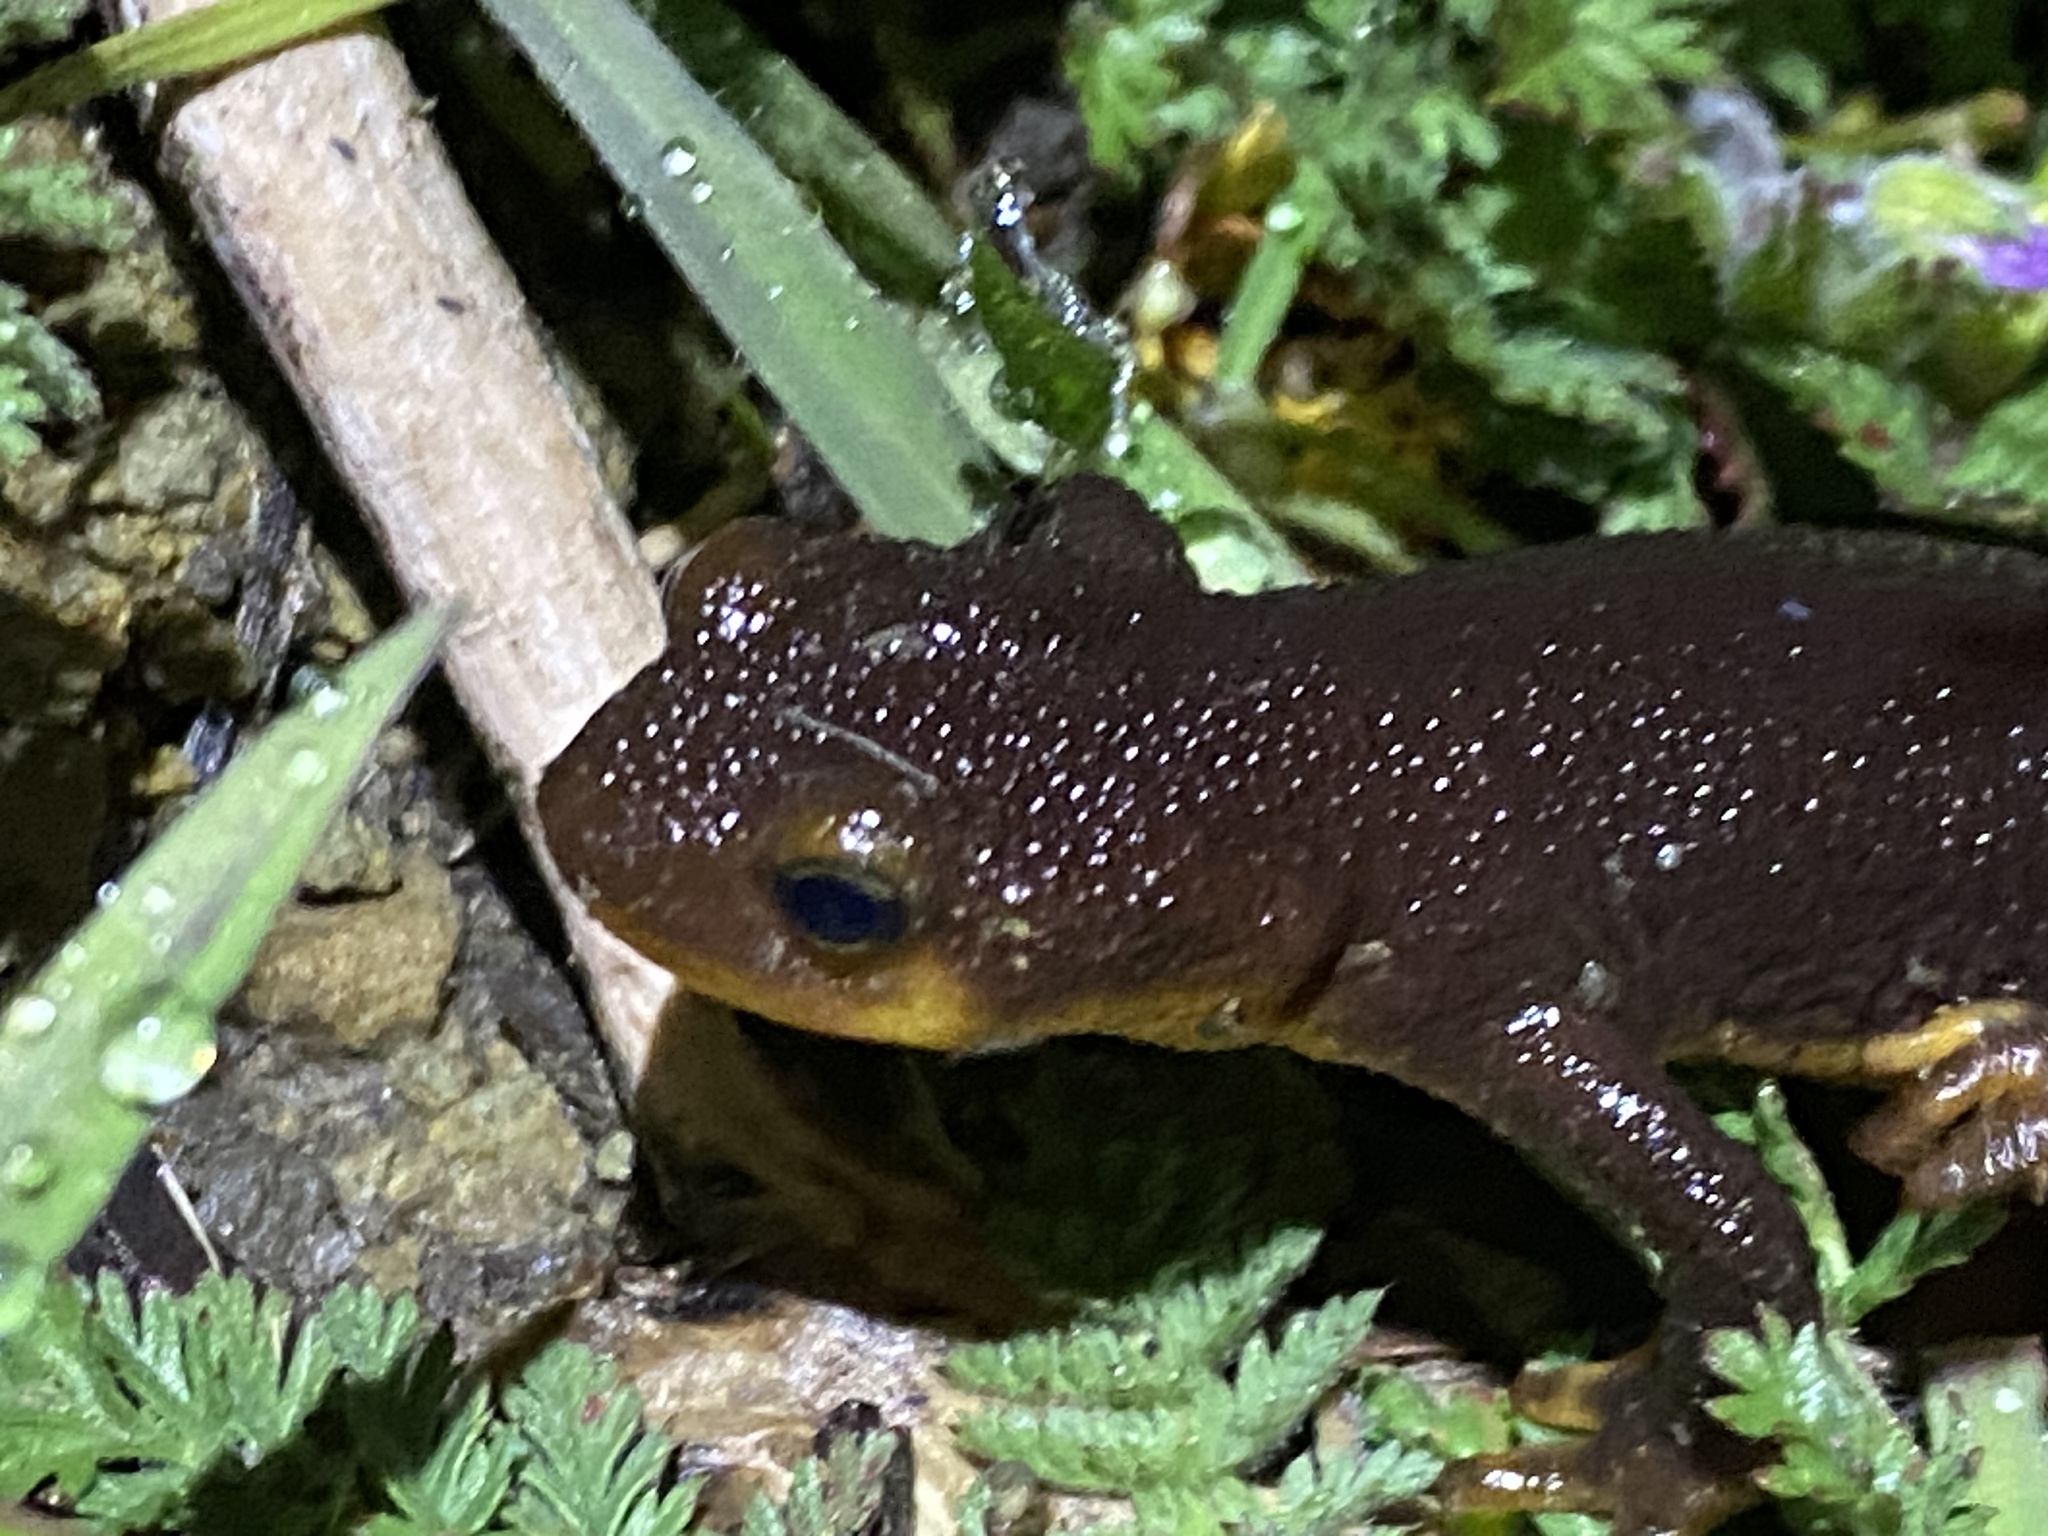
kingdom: Animalia
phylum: Chordata
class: Amphibia
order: Caudata
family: Salamandridae
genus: Taricha
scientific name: Taricha torosa
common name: California newt
